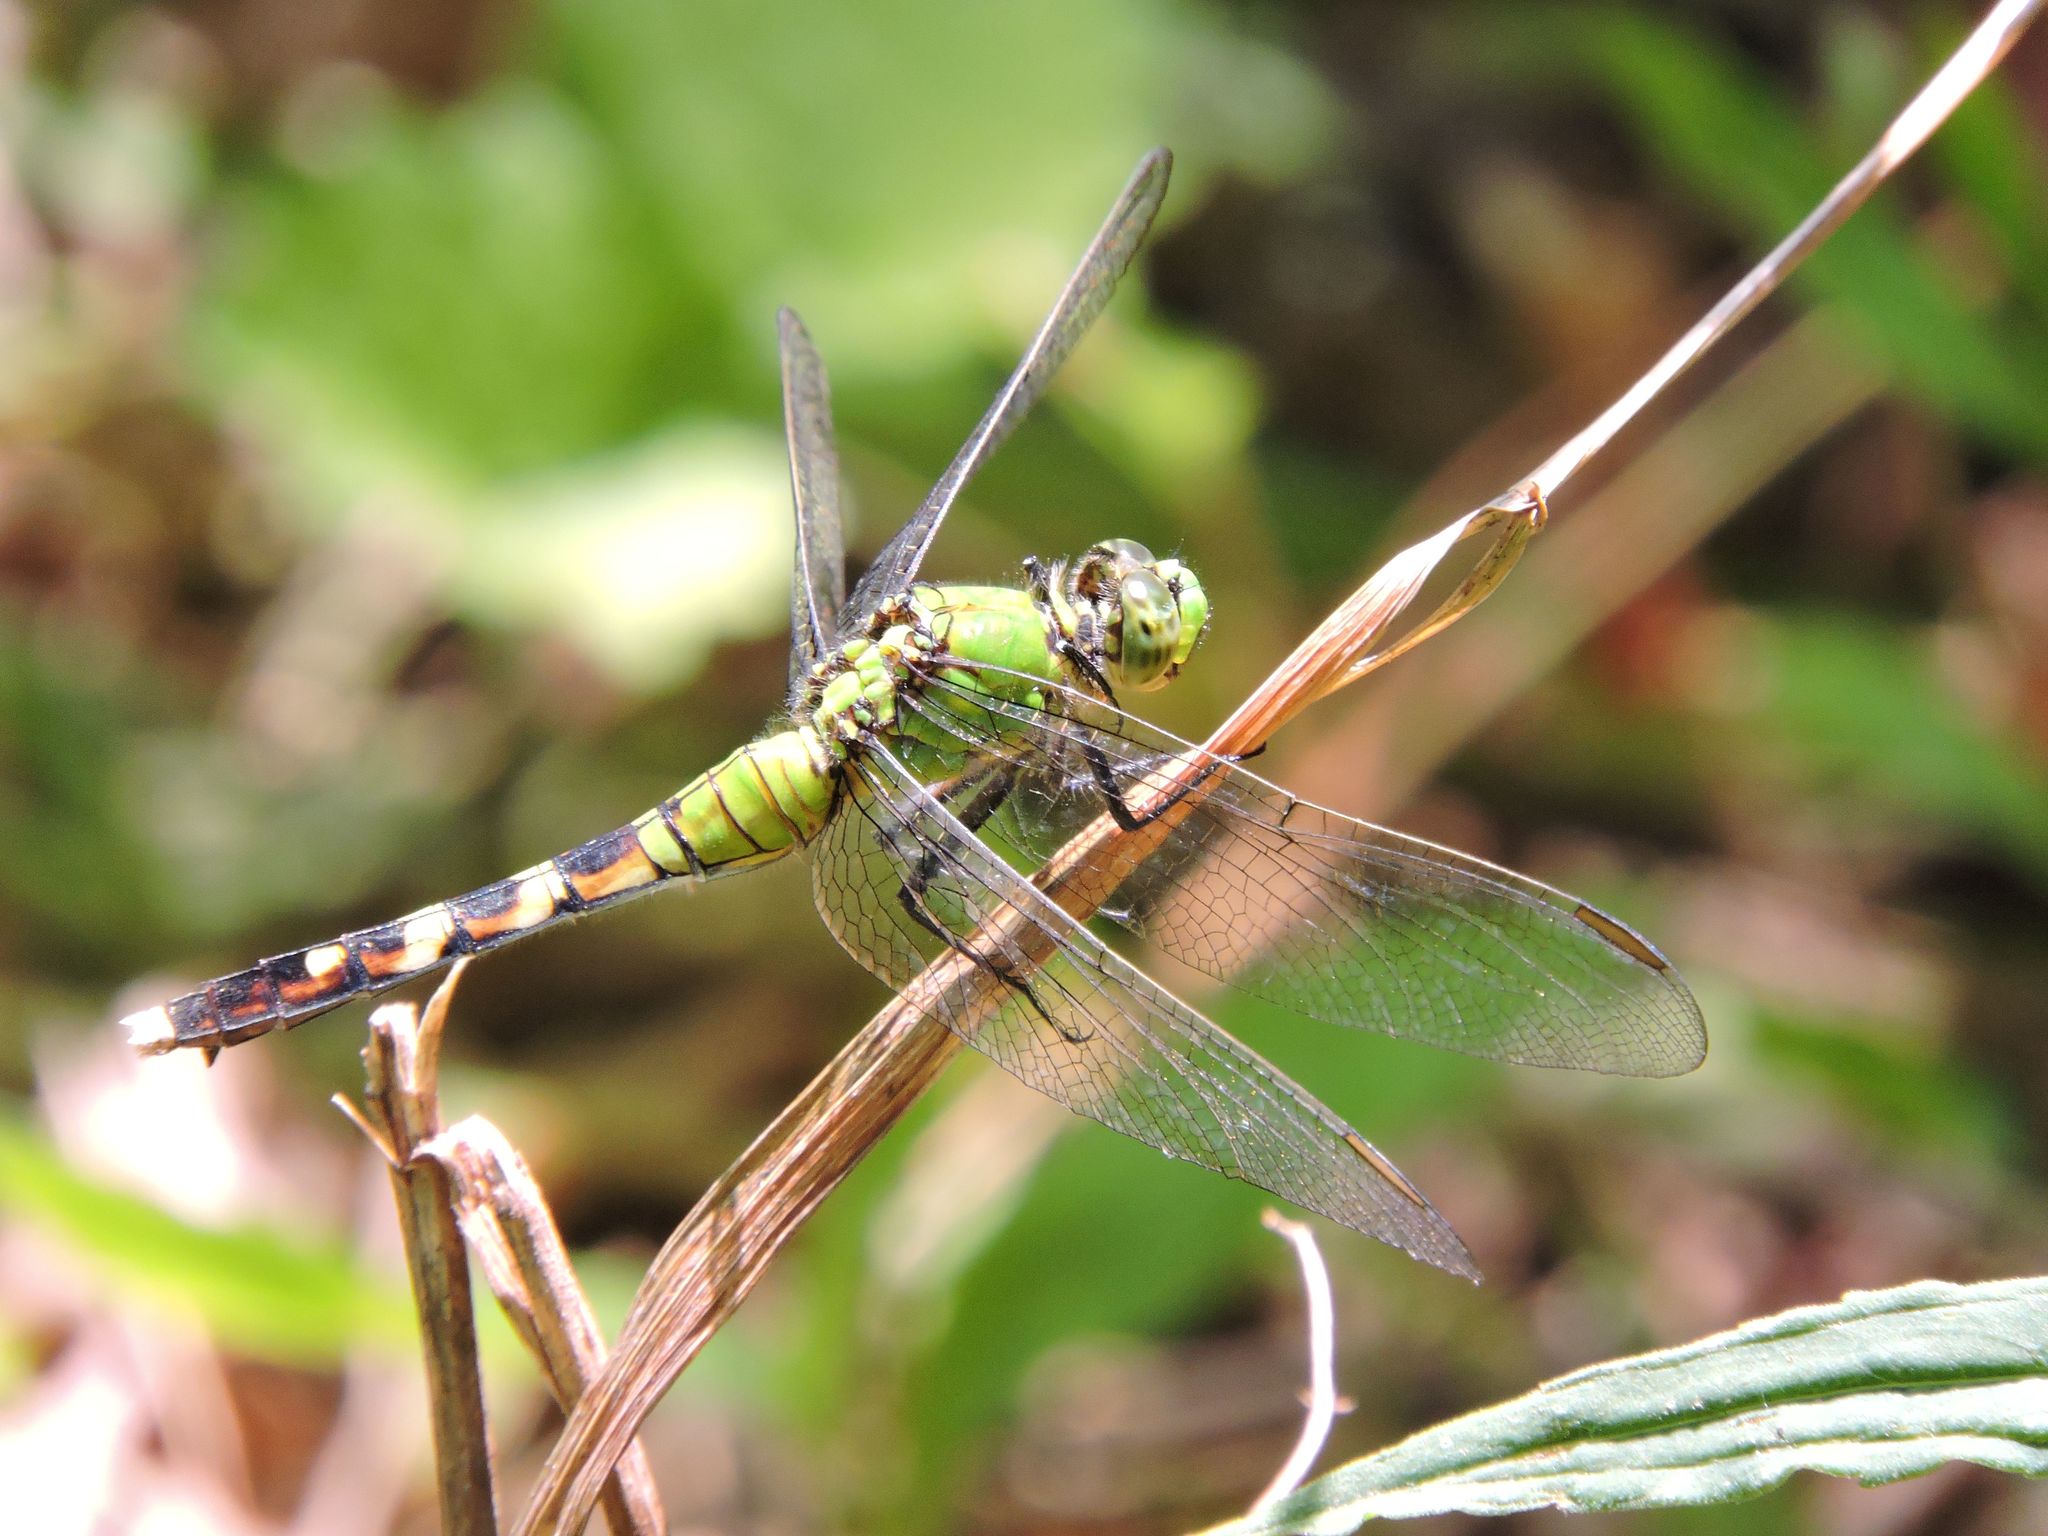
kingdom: Animalia
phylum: Arthropoda
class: Insecta
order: Odonata
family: Libellulidae
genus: Erythemis
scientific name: Erythemis simplicicollis
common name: Eastern pondhawk
